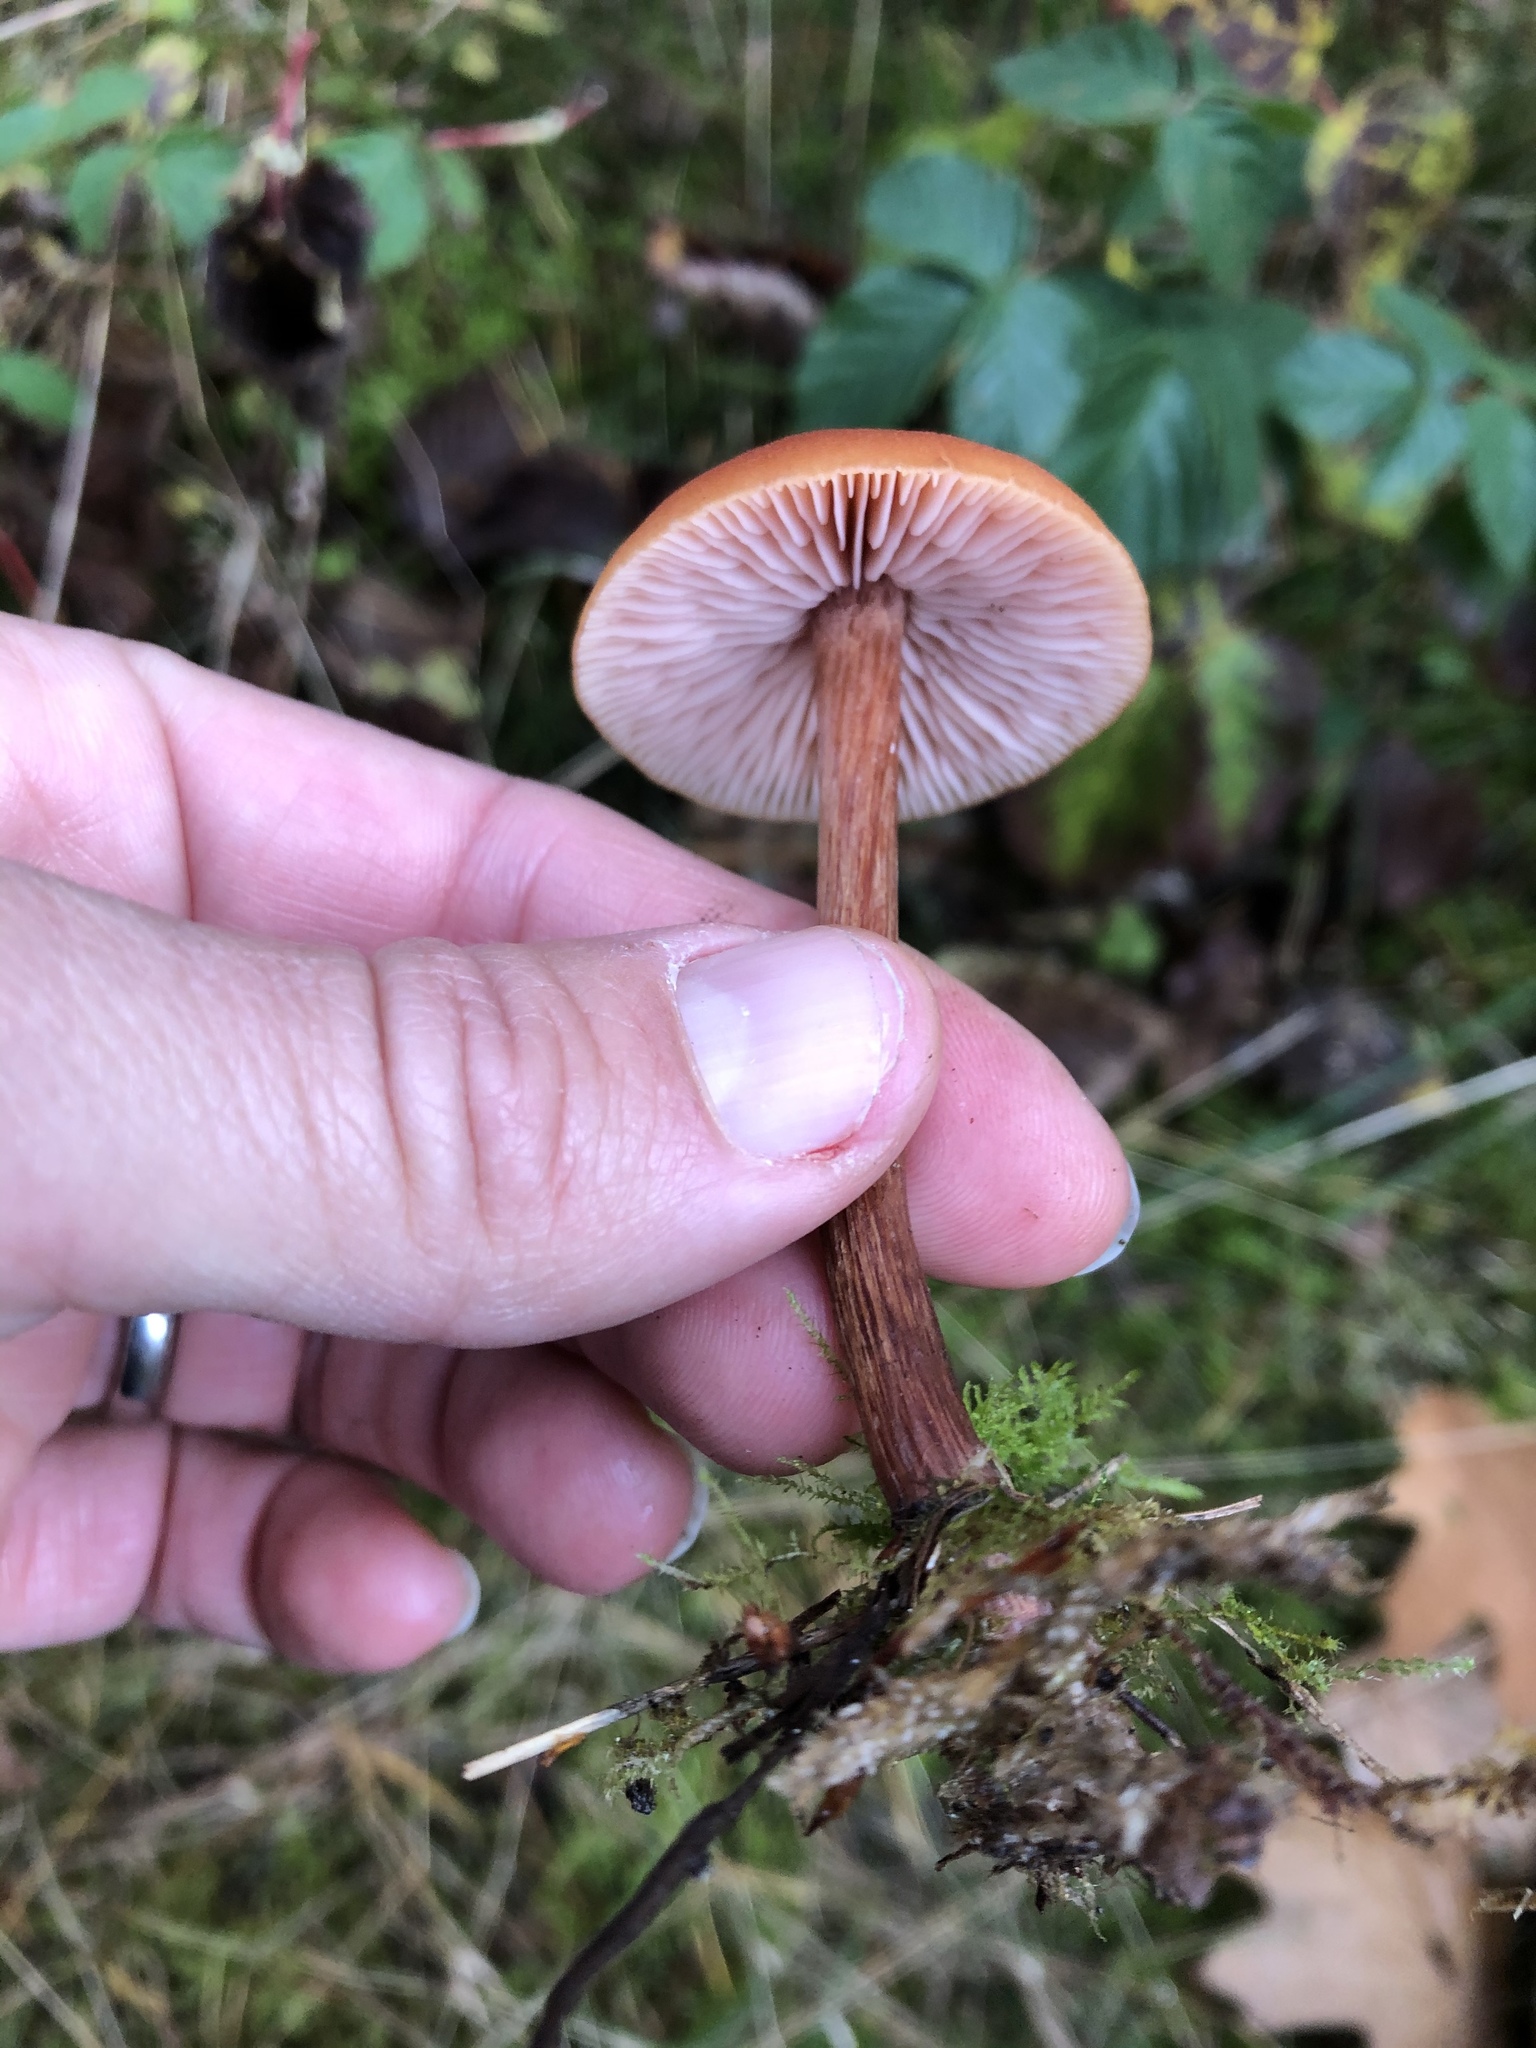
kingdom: Fungi
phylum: Basidiomycota
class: Agaricomycetes
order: Agaricales
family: Hydnangiaceae
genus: Laccaria
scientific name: Laccaria laccata
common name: Deceiver
